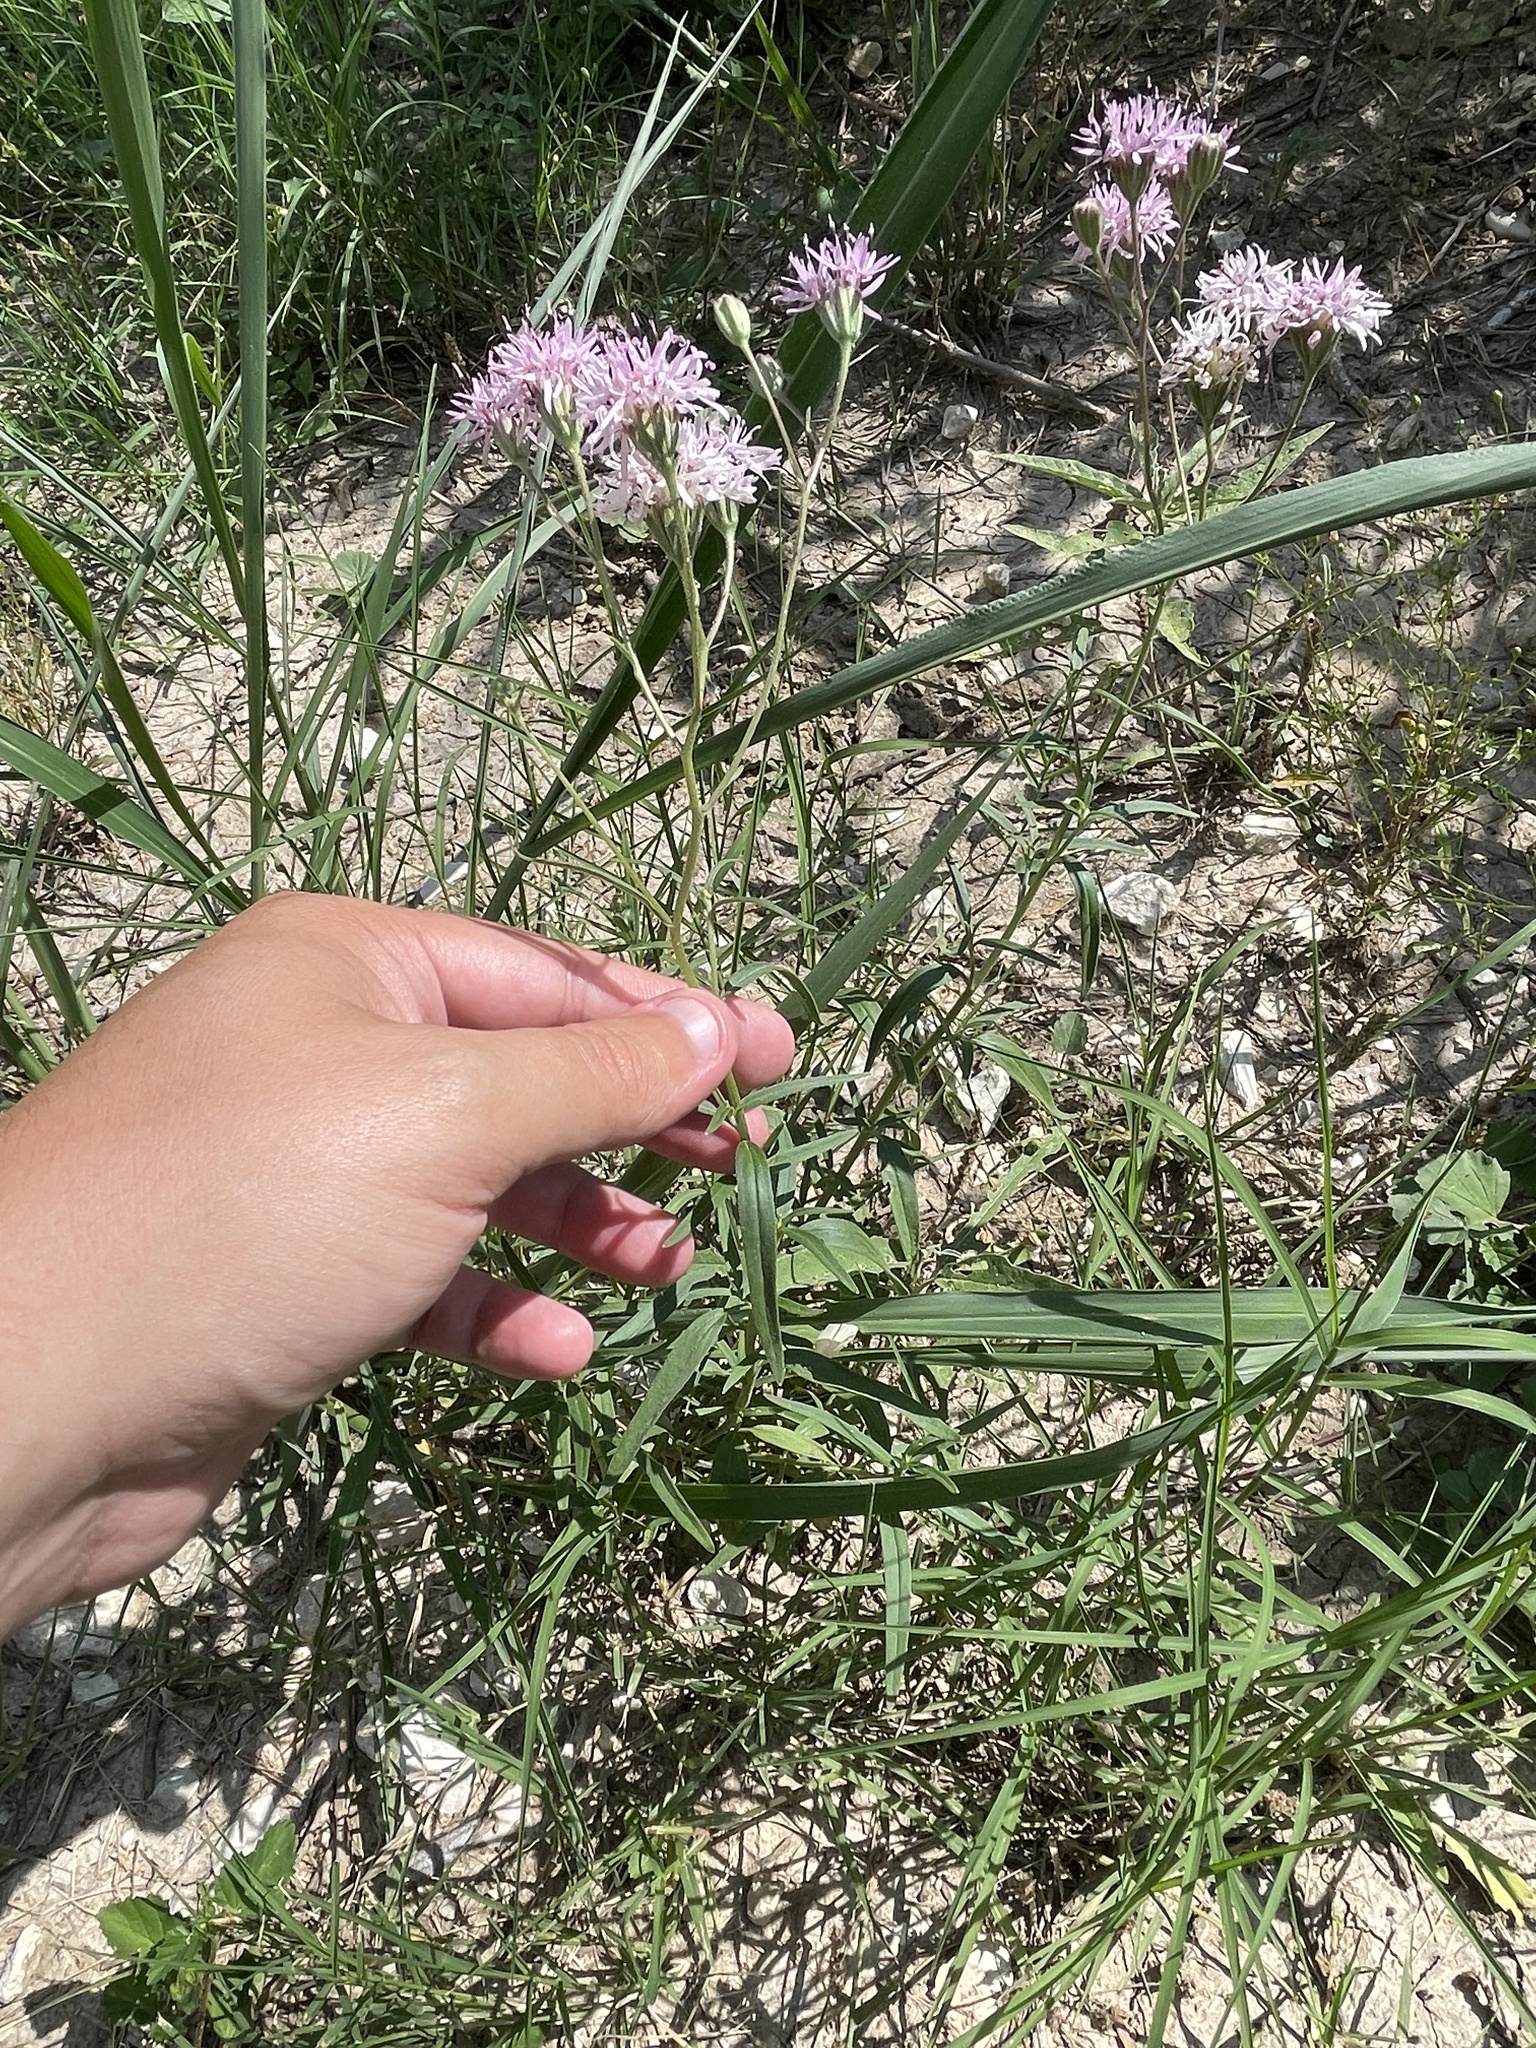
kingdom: Plantae
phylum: Tracheophyta
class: Magnoliopsida
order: Asterales
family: Asteraceae
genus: Palafoxia
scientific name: Palafoxia callosa
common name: Small palafox
